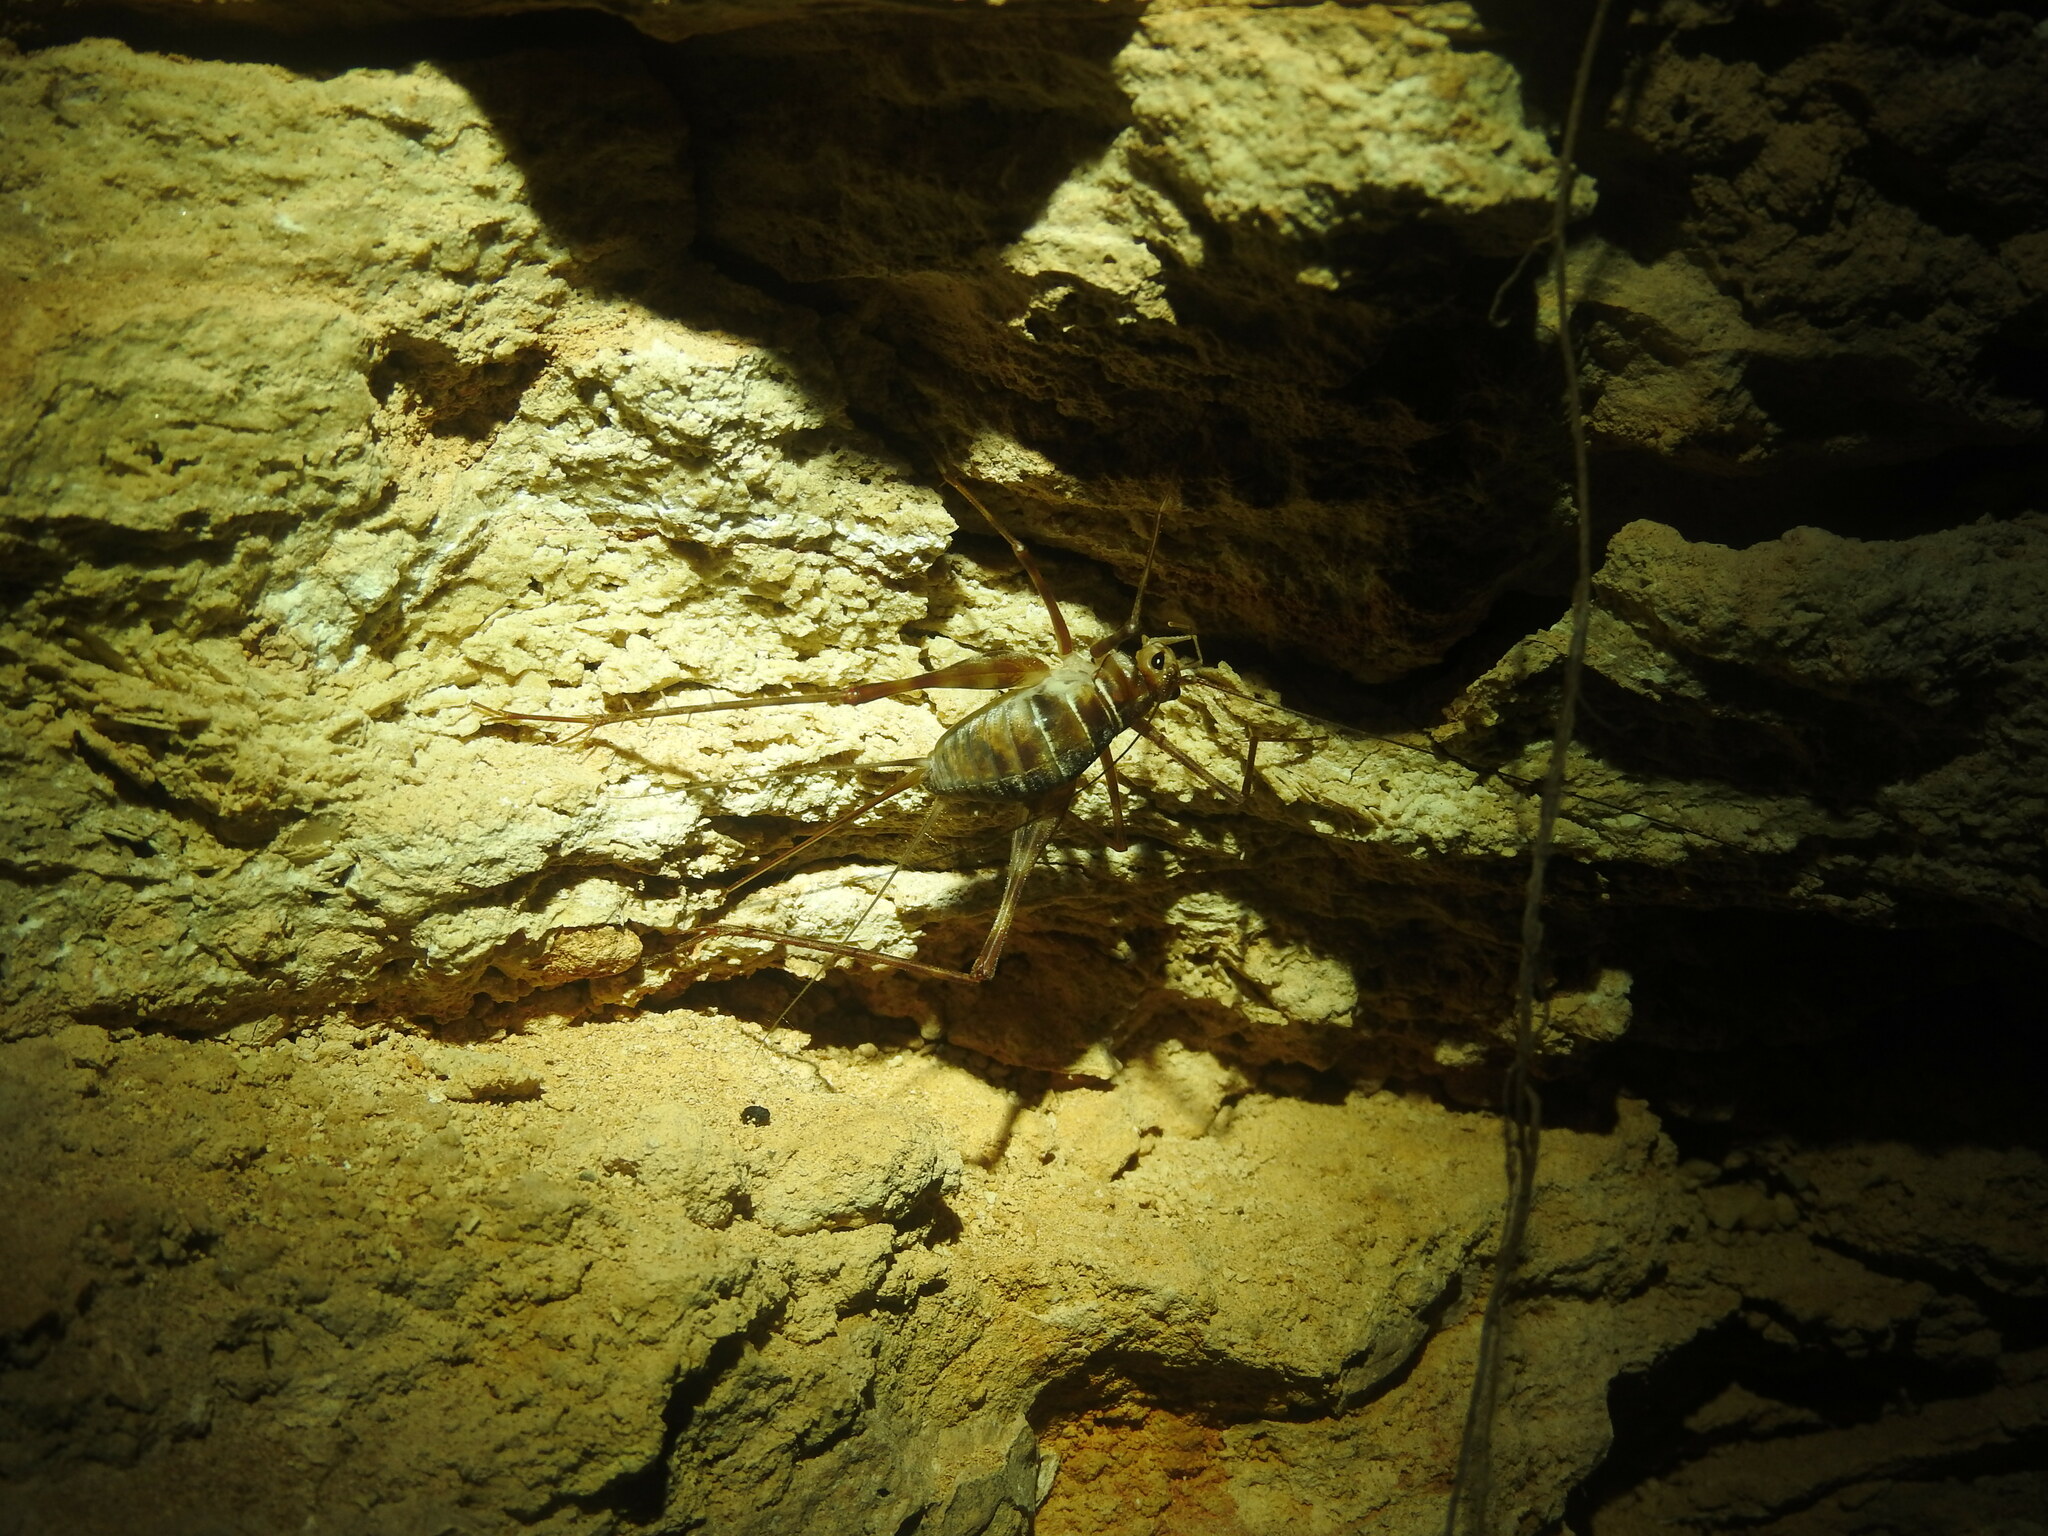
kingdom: Animalia
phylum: Arthropoda
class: Insecta
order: Orthoptera
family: Phalangopsidae
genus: Mayagryllus
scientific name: Mayagryllus yucatanus
